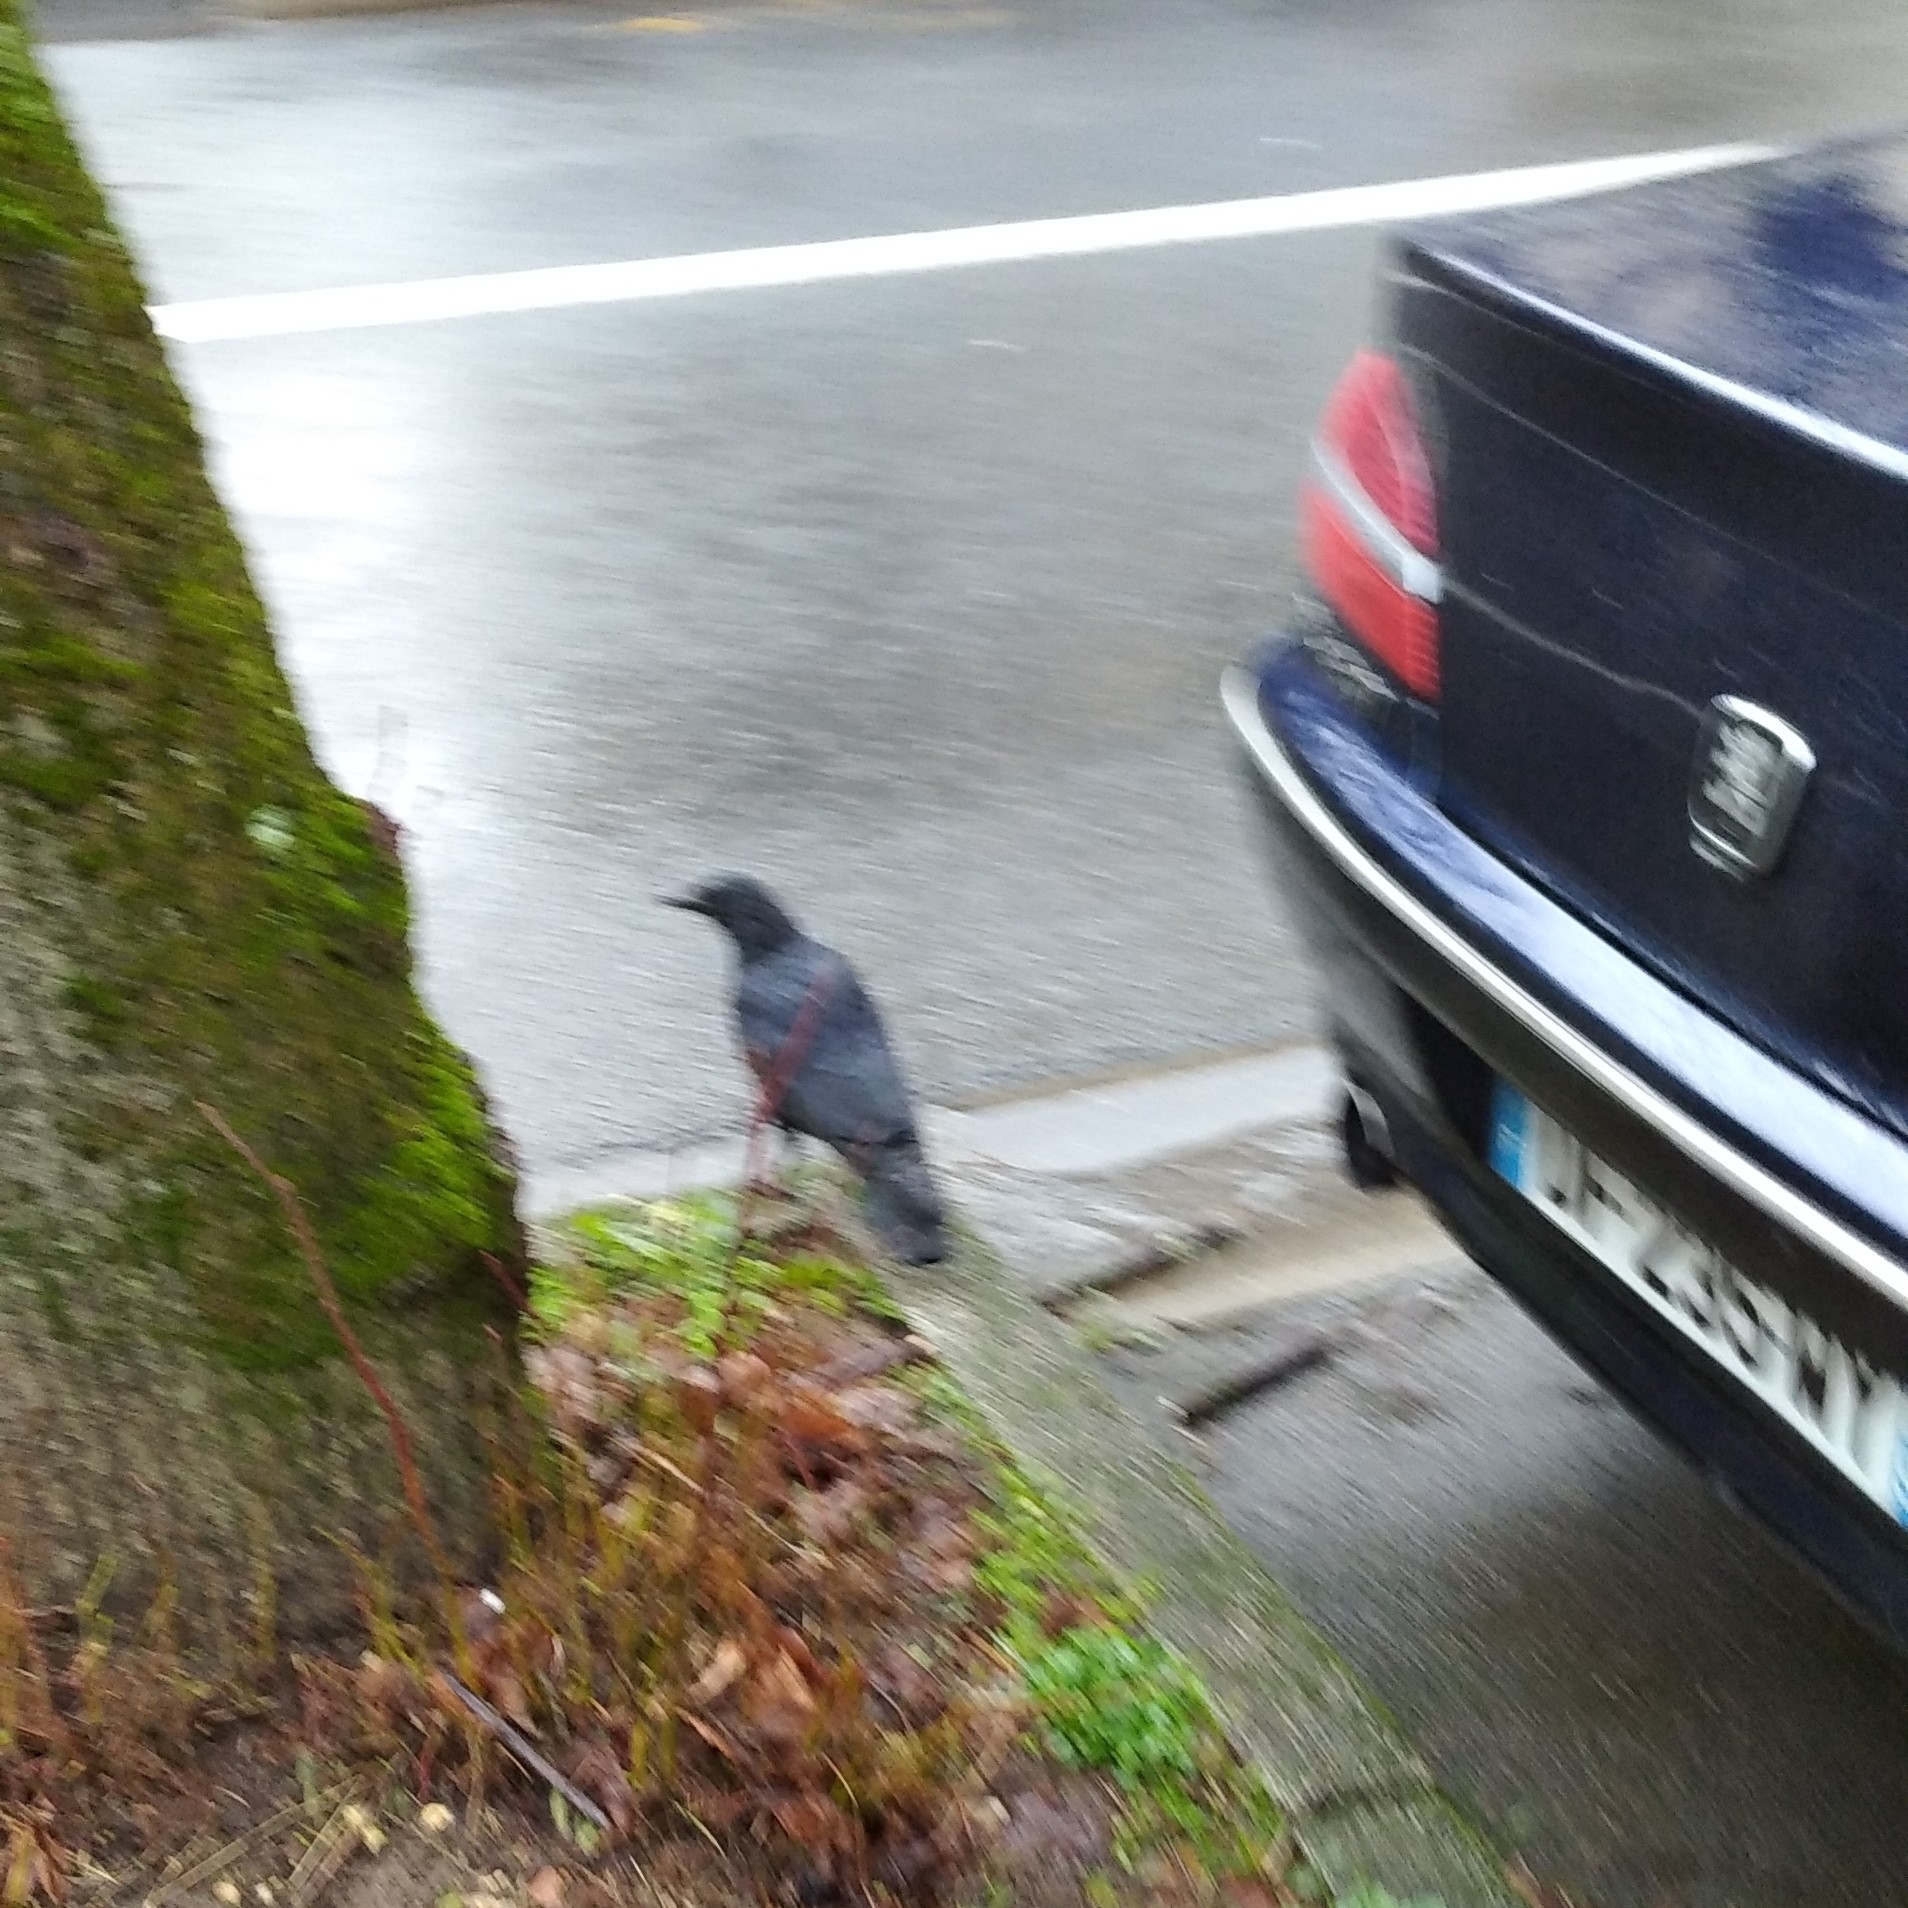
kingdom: Animalia
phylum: Chordata
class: Aves
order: Passeriformes
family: Corvidae
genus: Corvus
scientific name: Corvus corone
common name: Carrion crow
